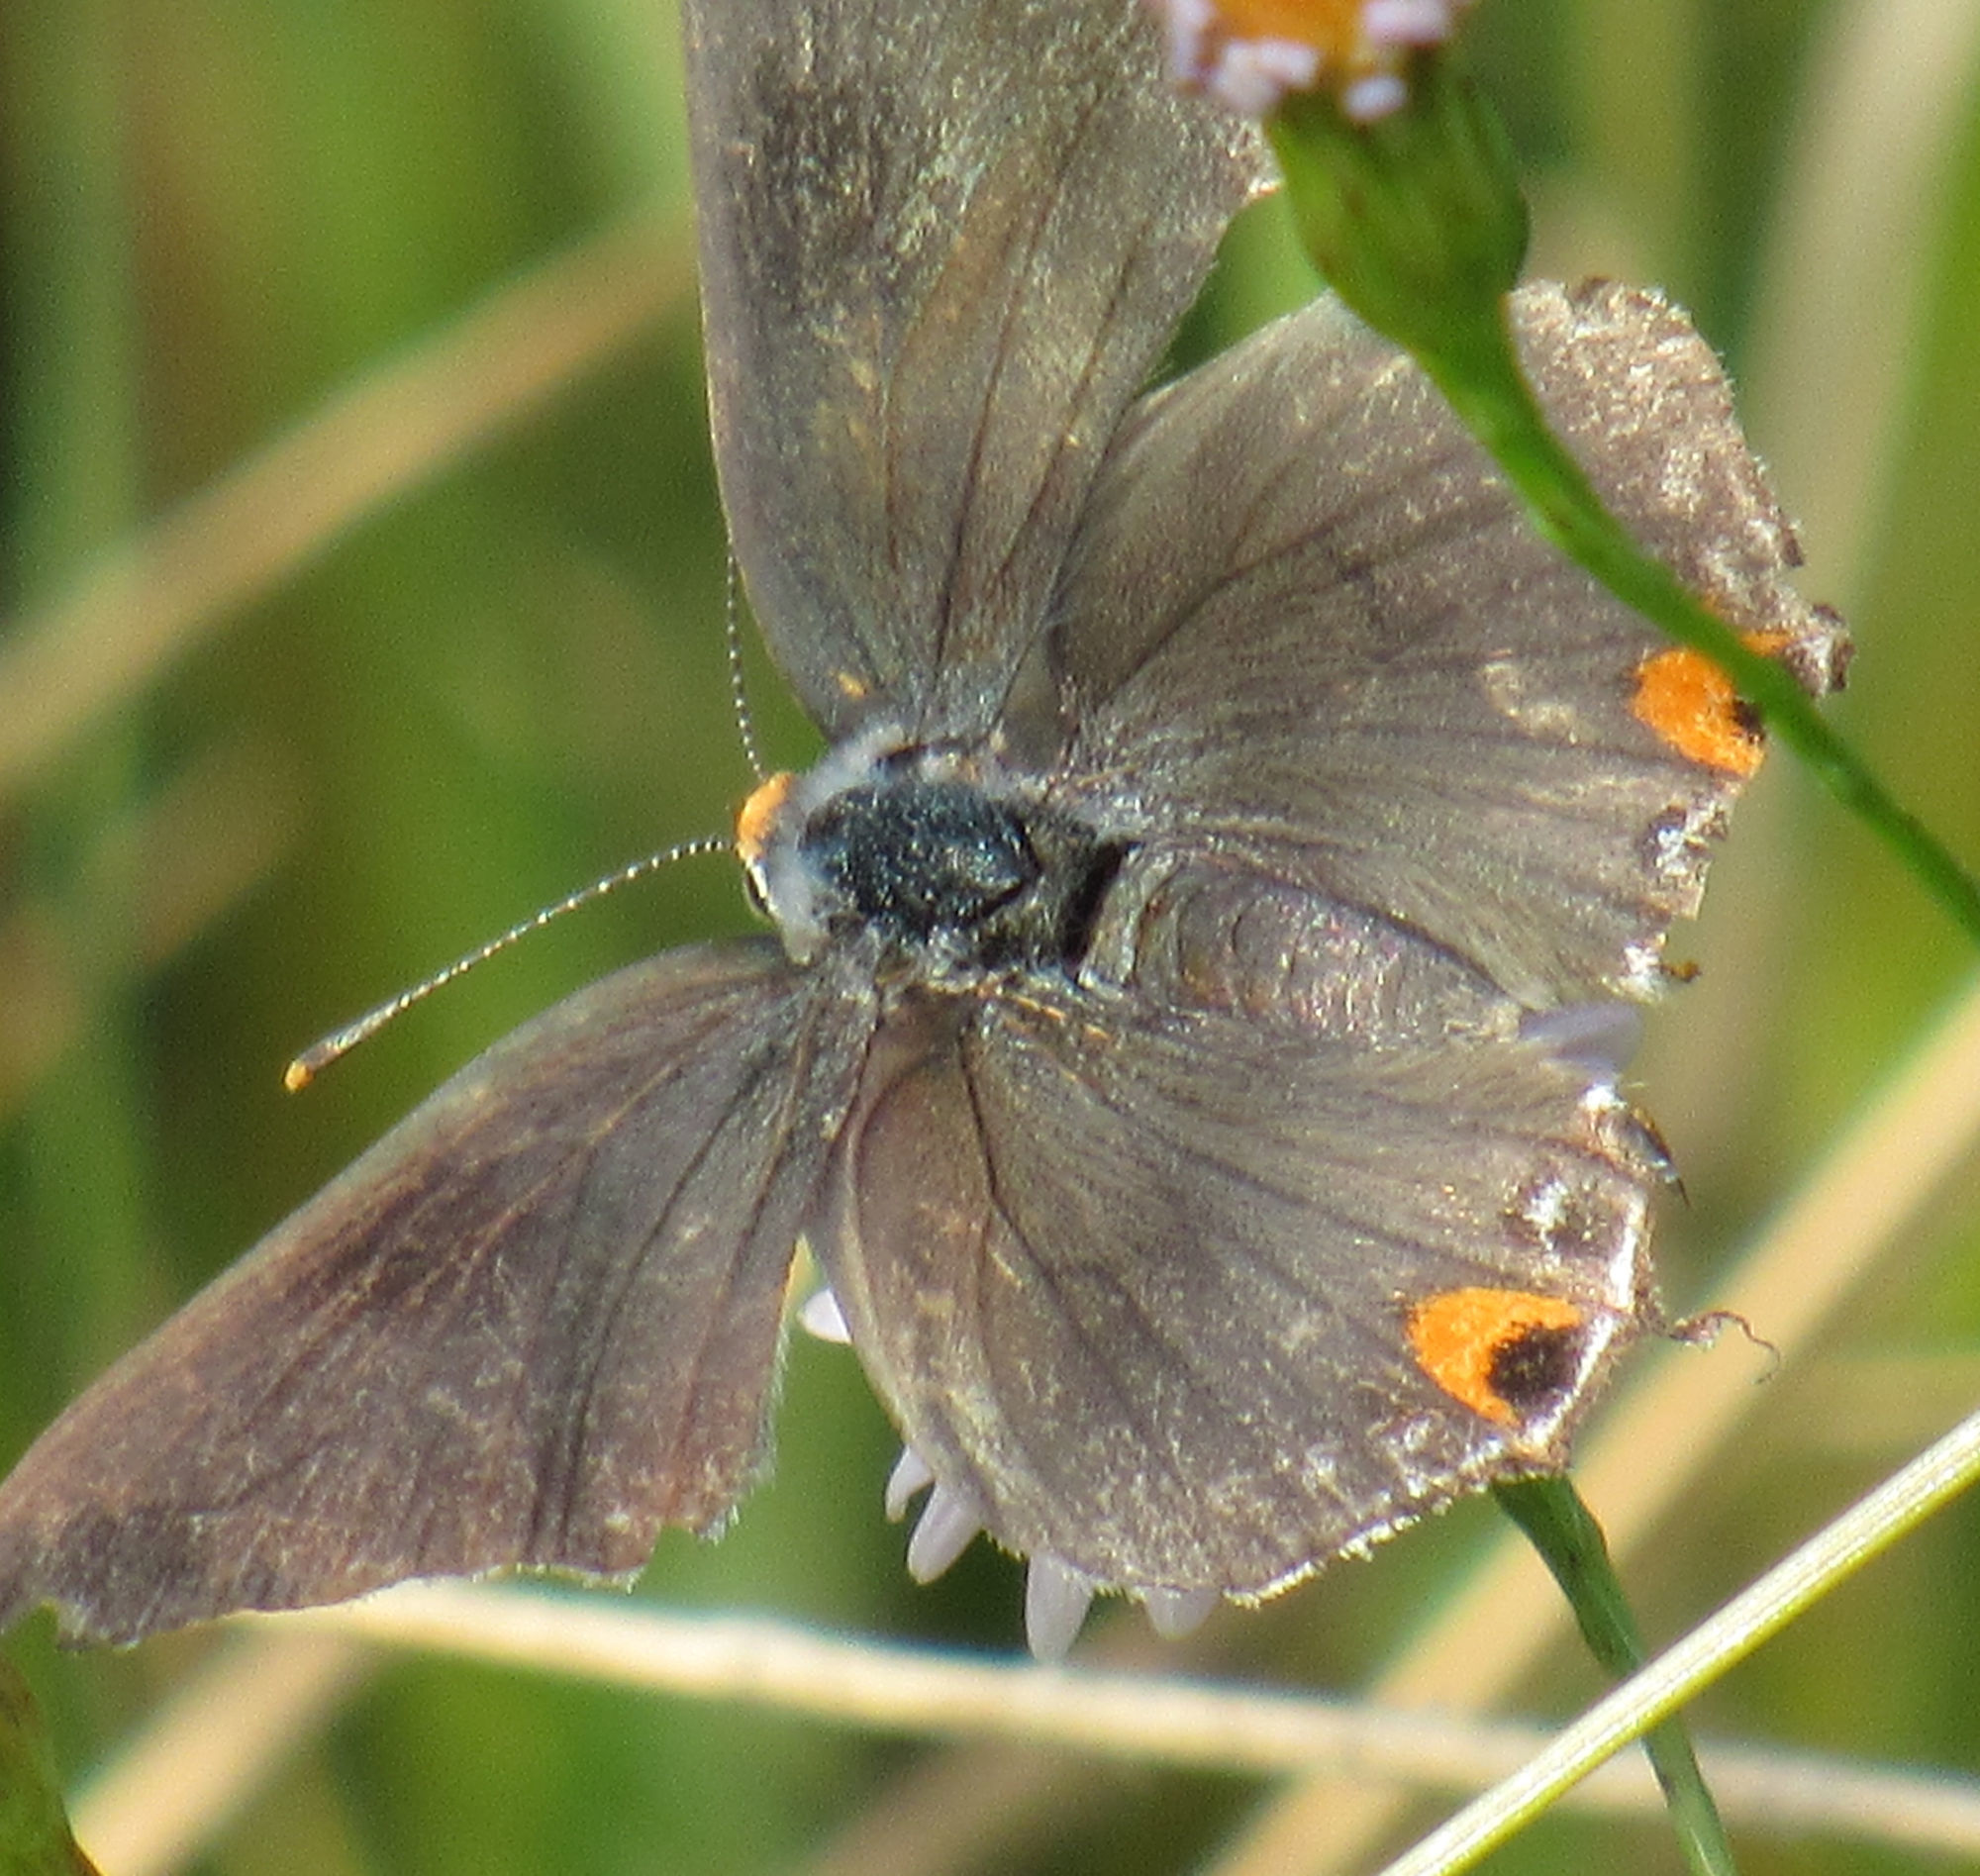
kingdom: Animalia
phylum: Arthropoda
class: Insecta
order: Lepidoptera
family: Lycaenidae
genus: Strymon
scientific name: Strymon melinus
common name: Gray hairstreak
